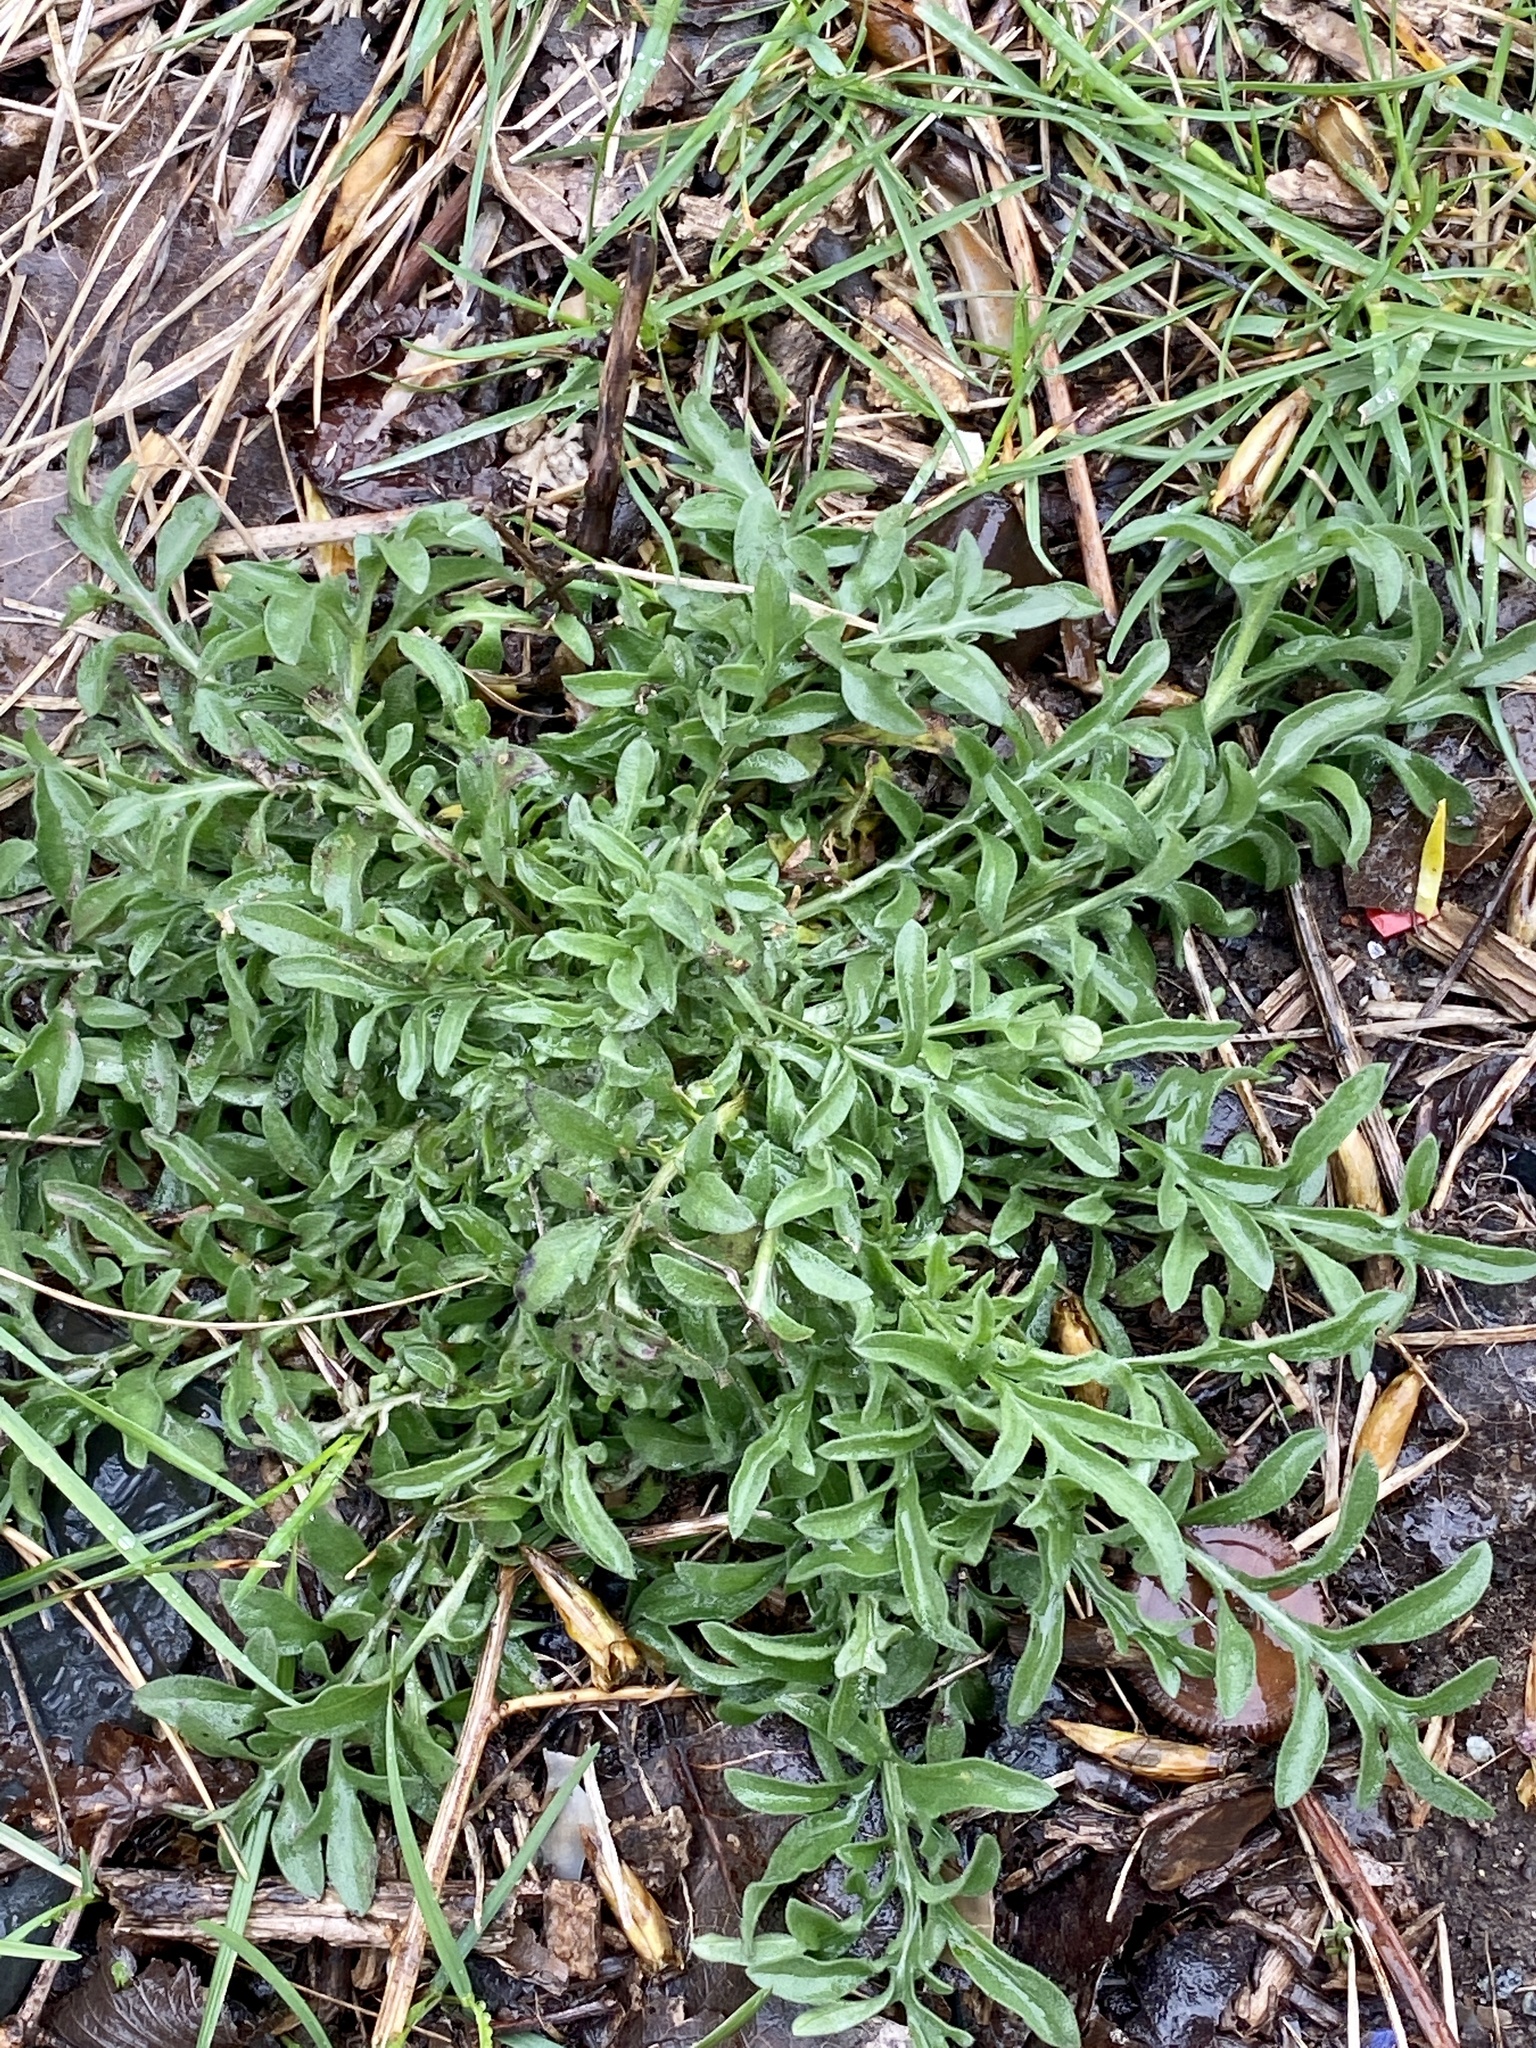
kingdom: Plantae
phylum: Tracheophyta
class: Magnoliopsida
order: Asterales
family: Asteraceae
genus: Centaurea
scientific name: Centaurea stoebe
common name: Spotted knapweed
